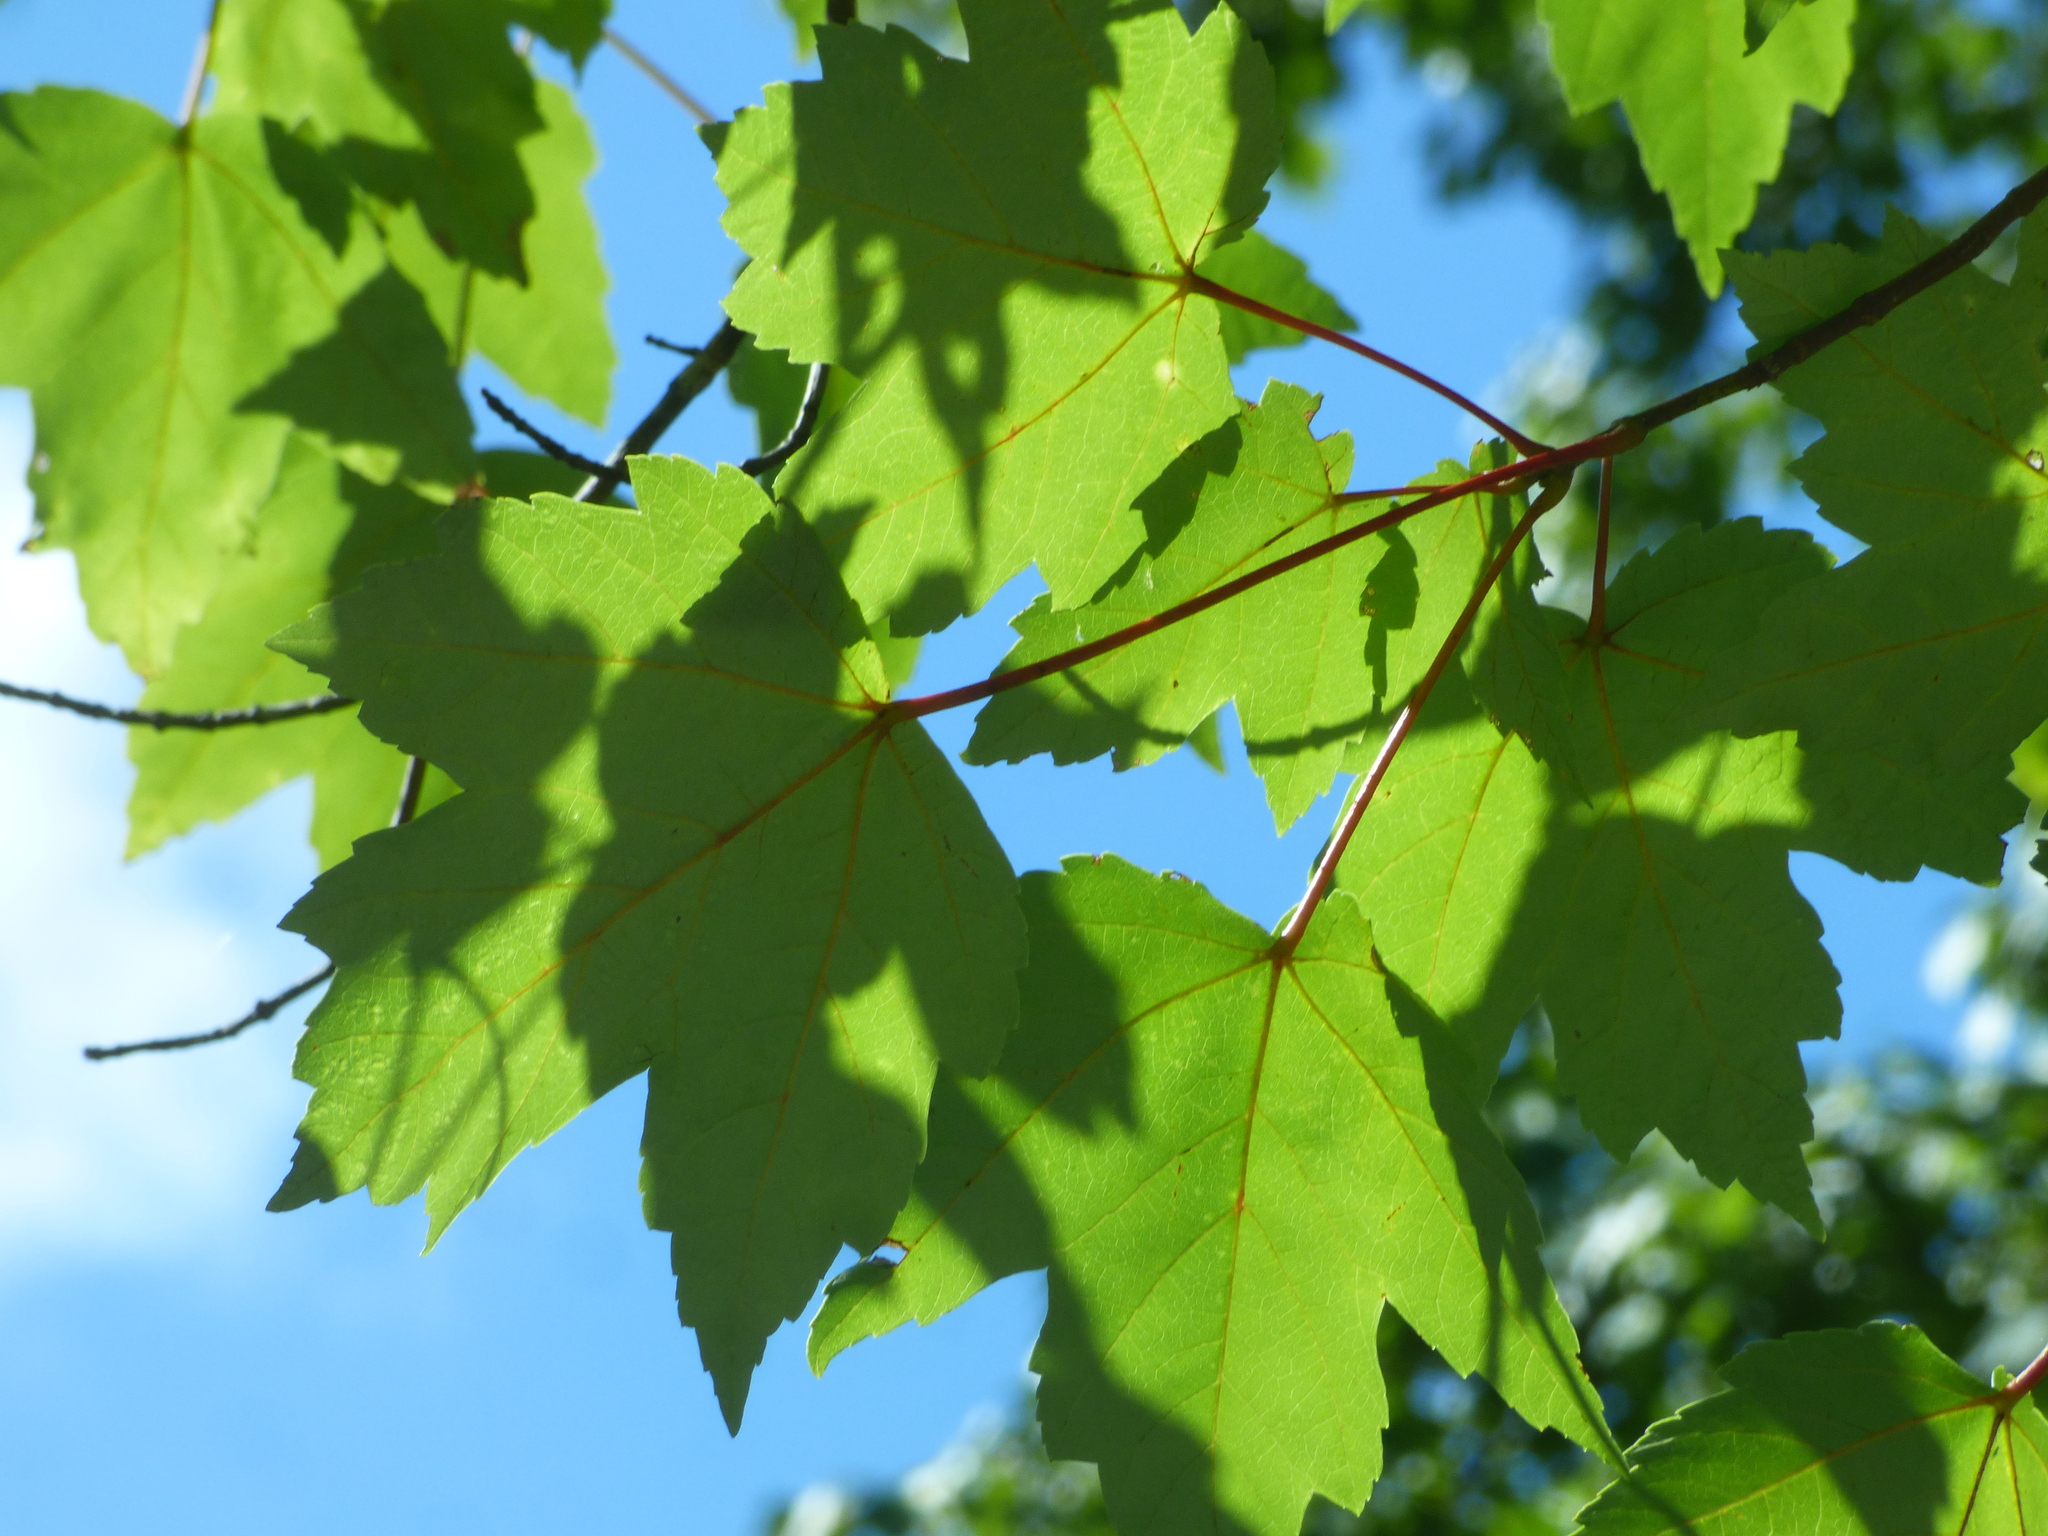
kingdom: Plantae
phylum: Tracheophyta
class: Magnoliopsida
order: Sapindales
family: Sapindaceae
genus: Acer
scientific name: Acer rubrum
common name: Red maple
